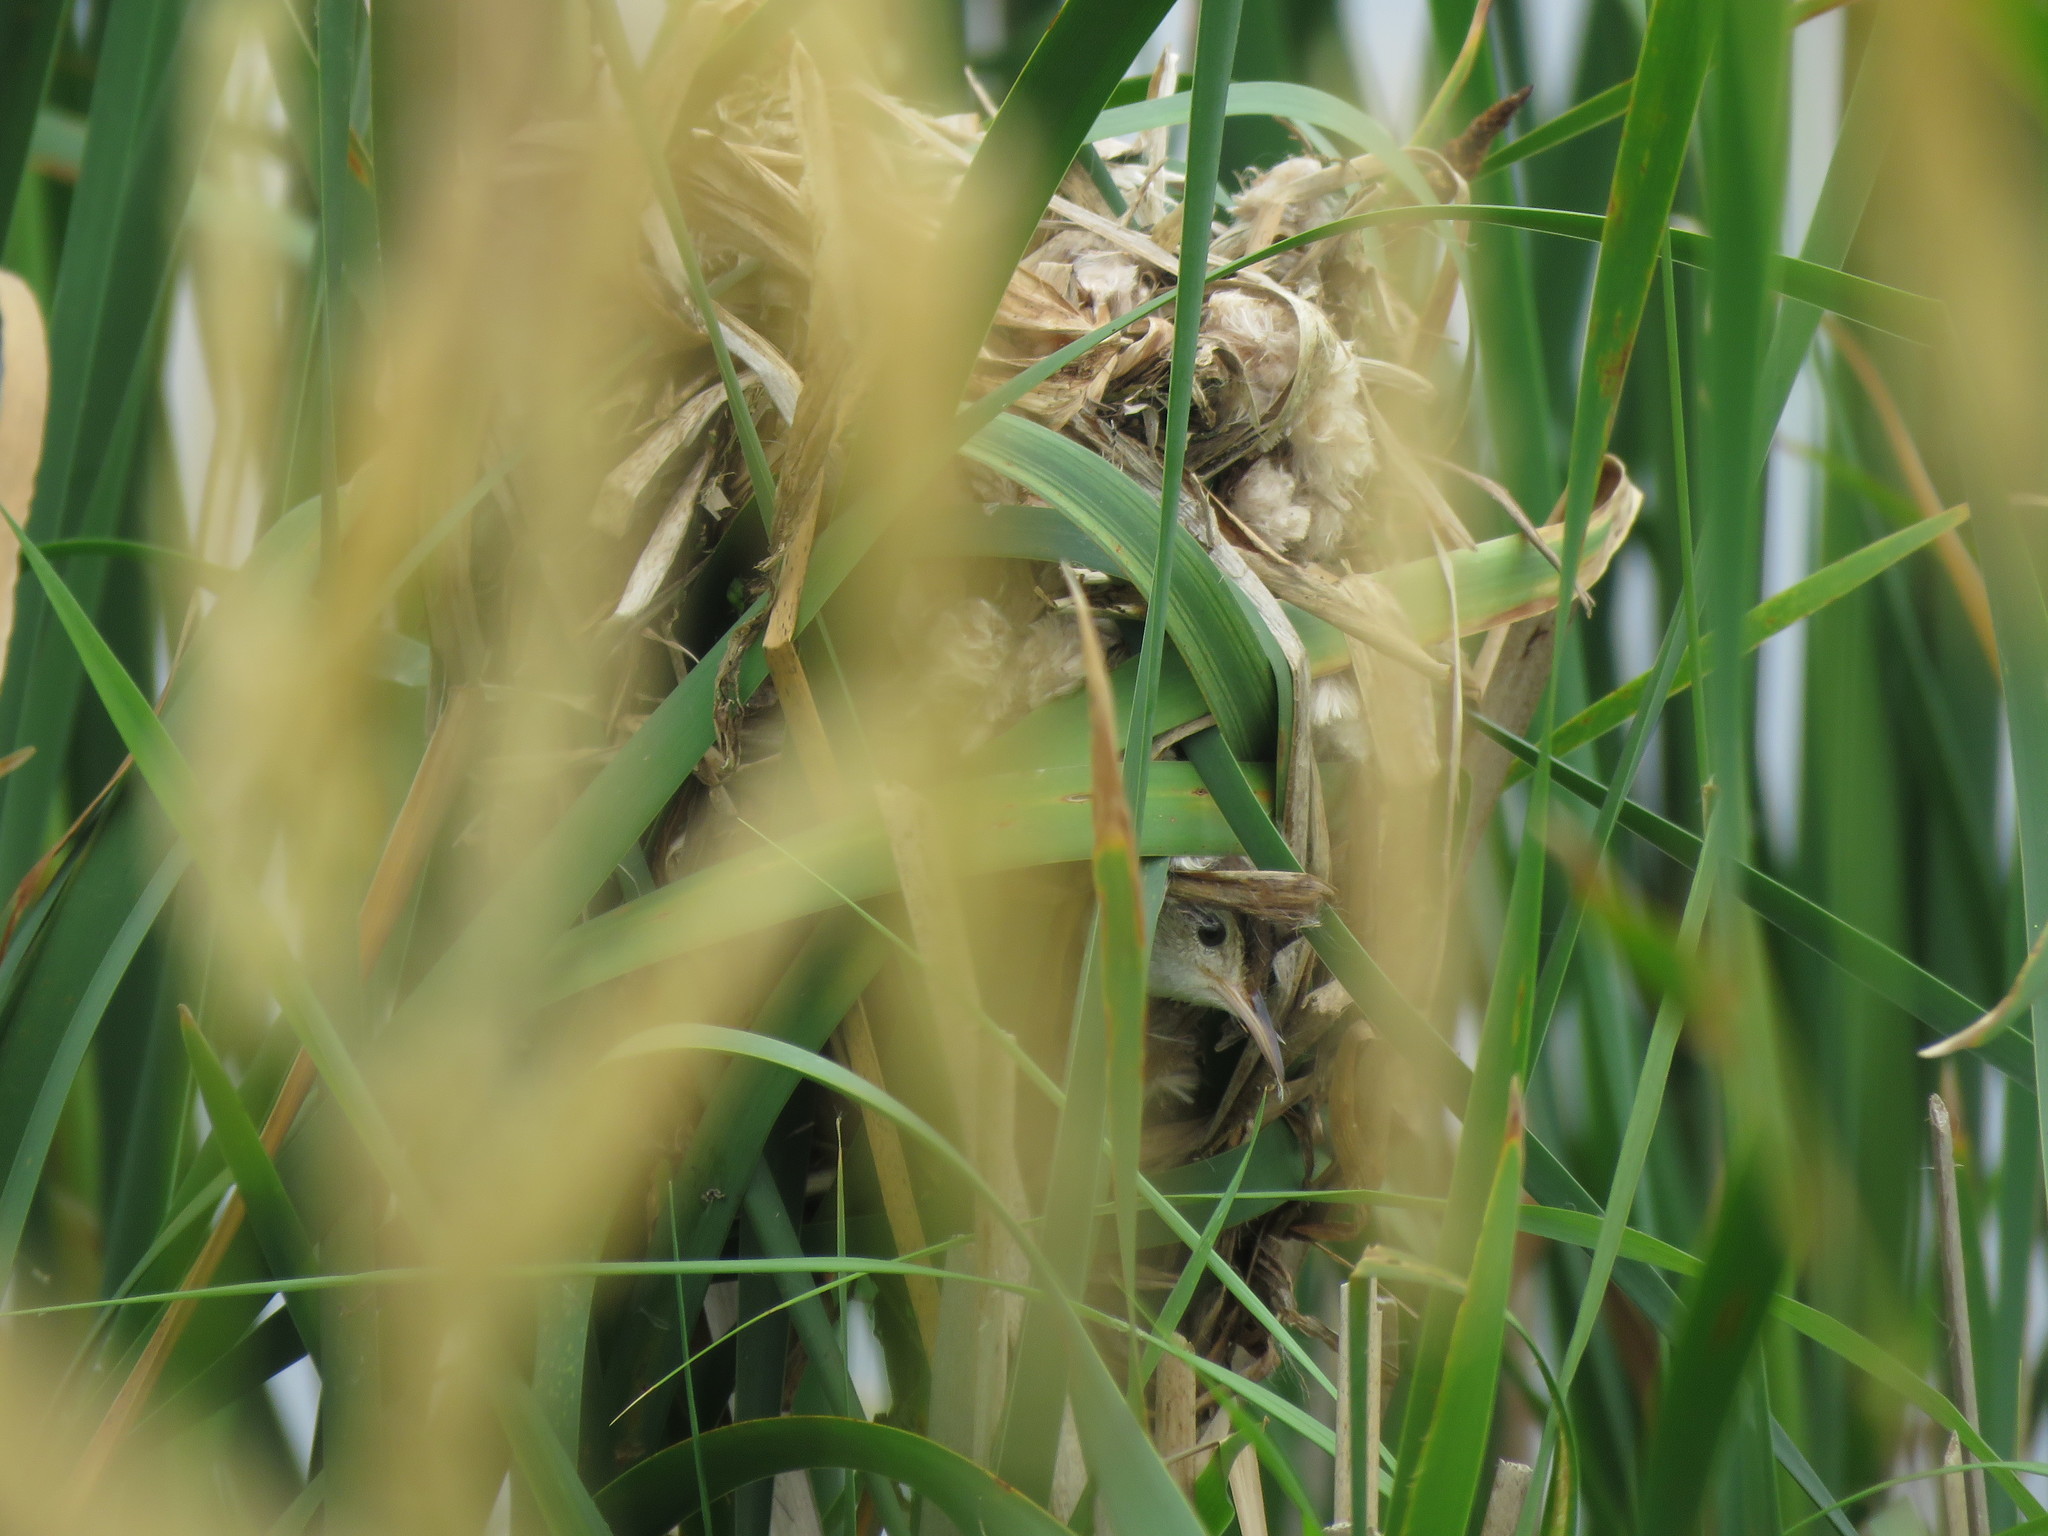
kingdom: Animalia
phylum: Chordata
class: Aves
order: Passeriformes
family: Troglodytidae
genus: Cistothorus
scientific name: Cistothorus palustris
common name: Marsh wren
